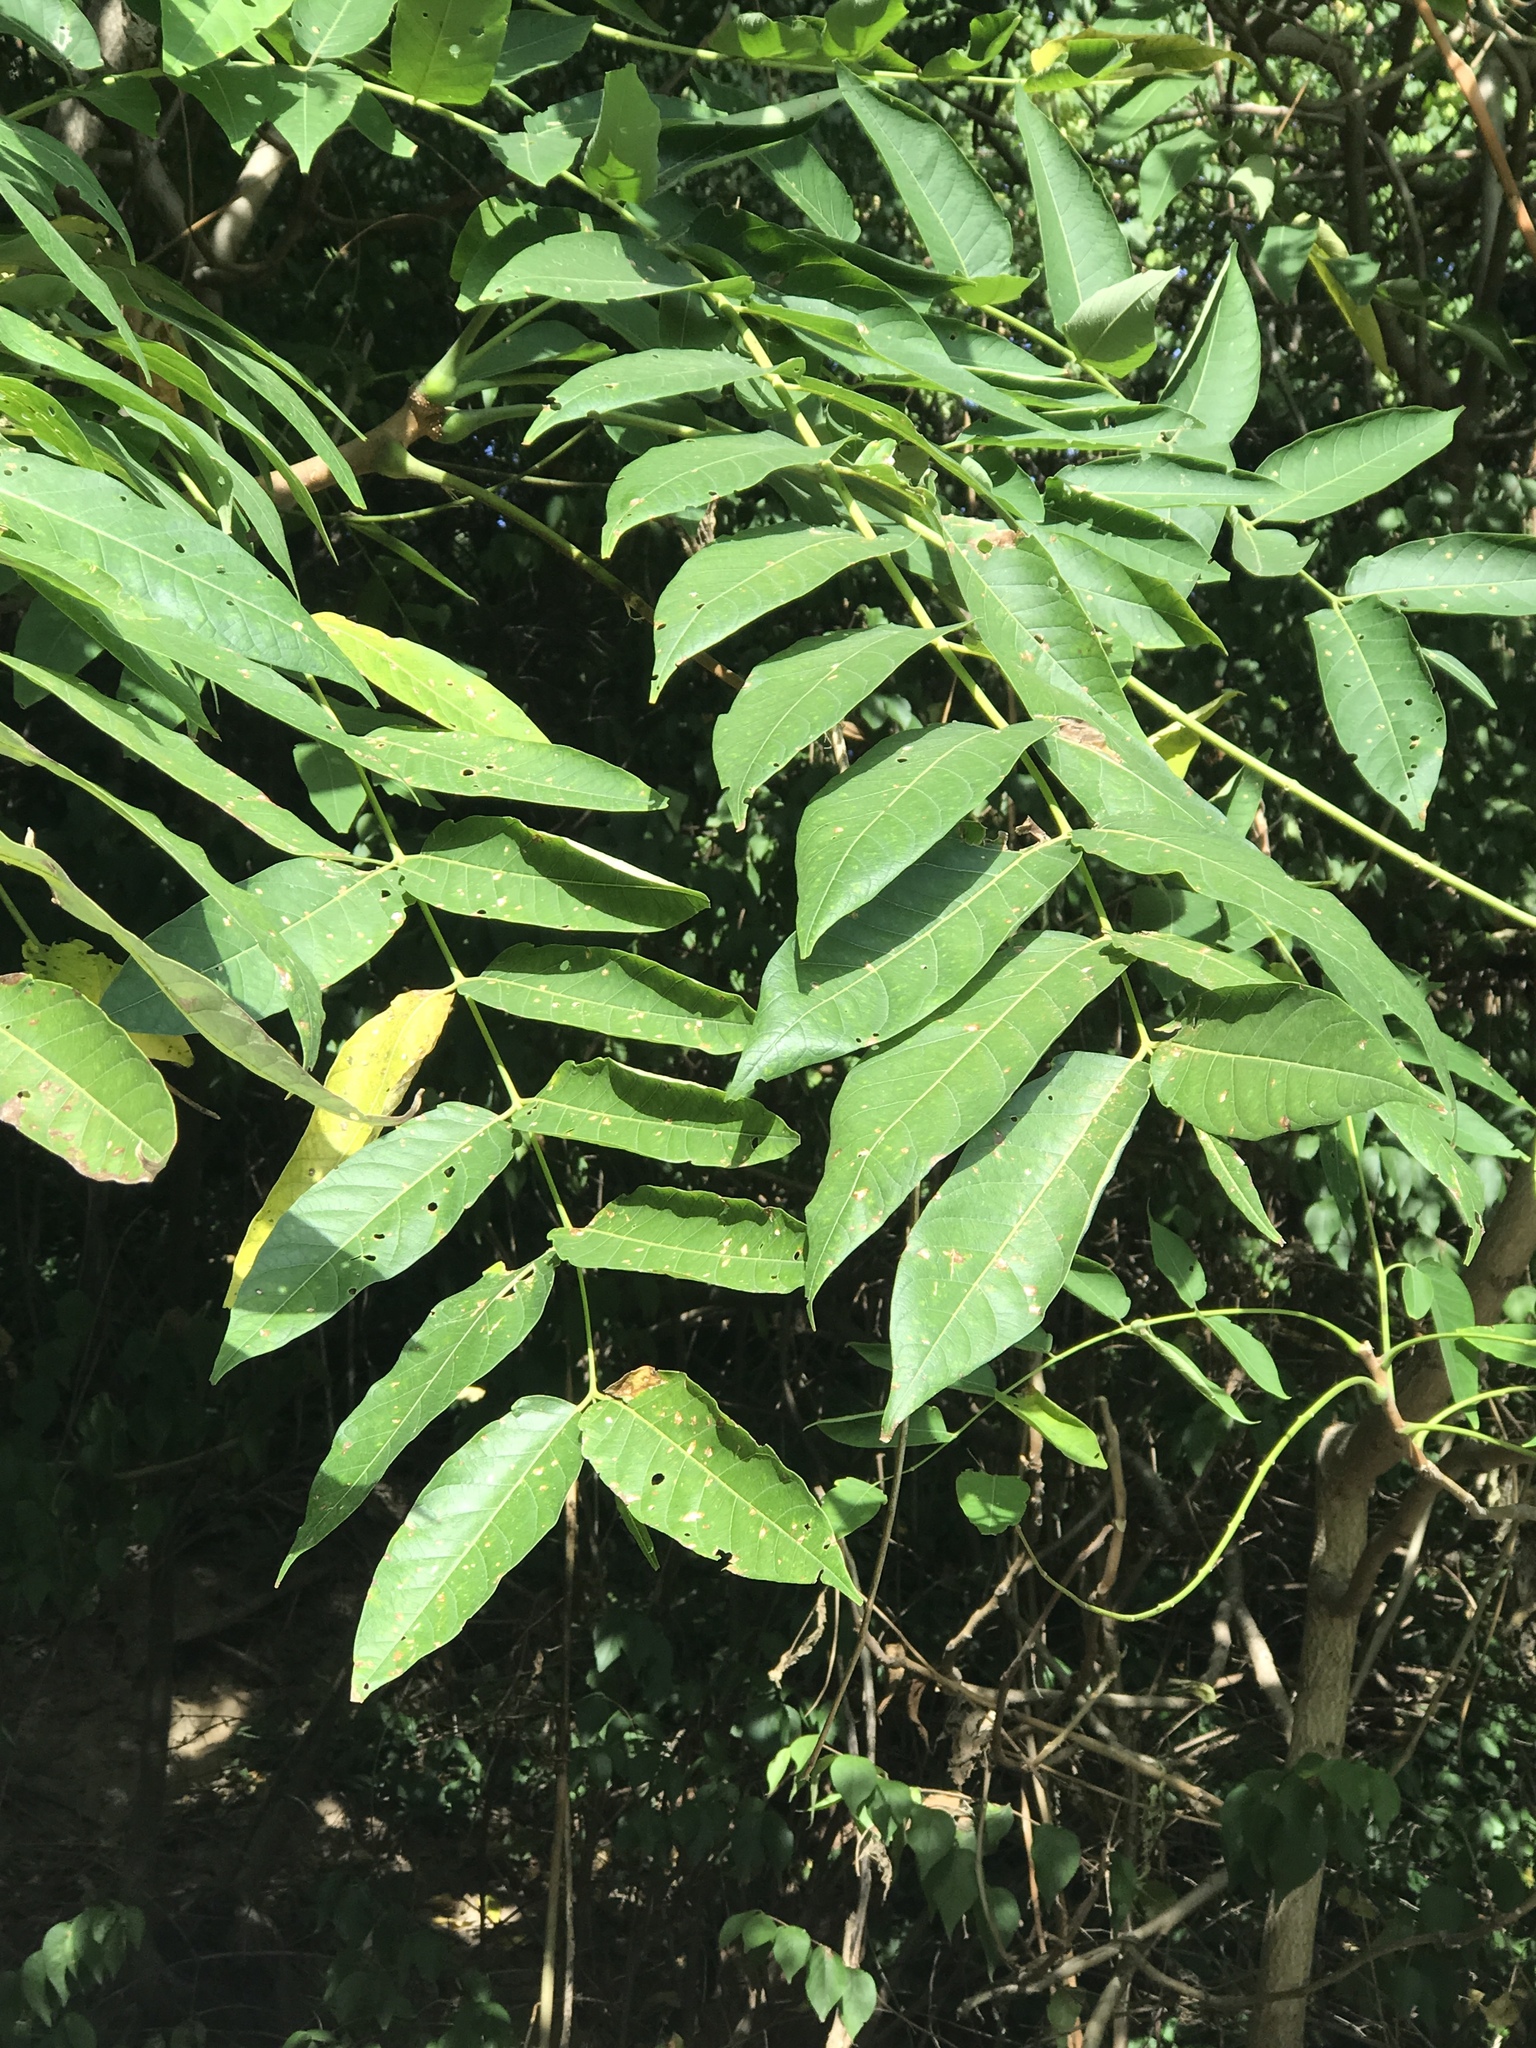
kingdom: Plantae
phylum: Tracheophyta
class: Magnoliopsida
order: Sapindales
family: Simaroubaceae
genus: Ailanthus
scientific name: Ailanthus altissima
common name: Tree-of-heaven
